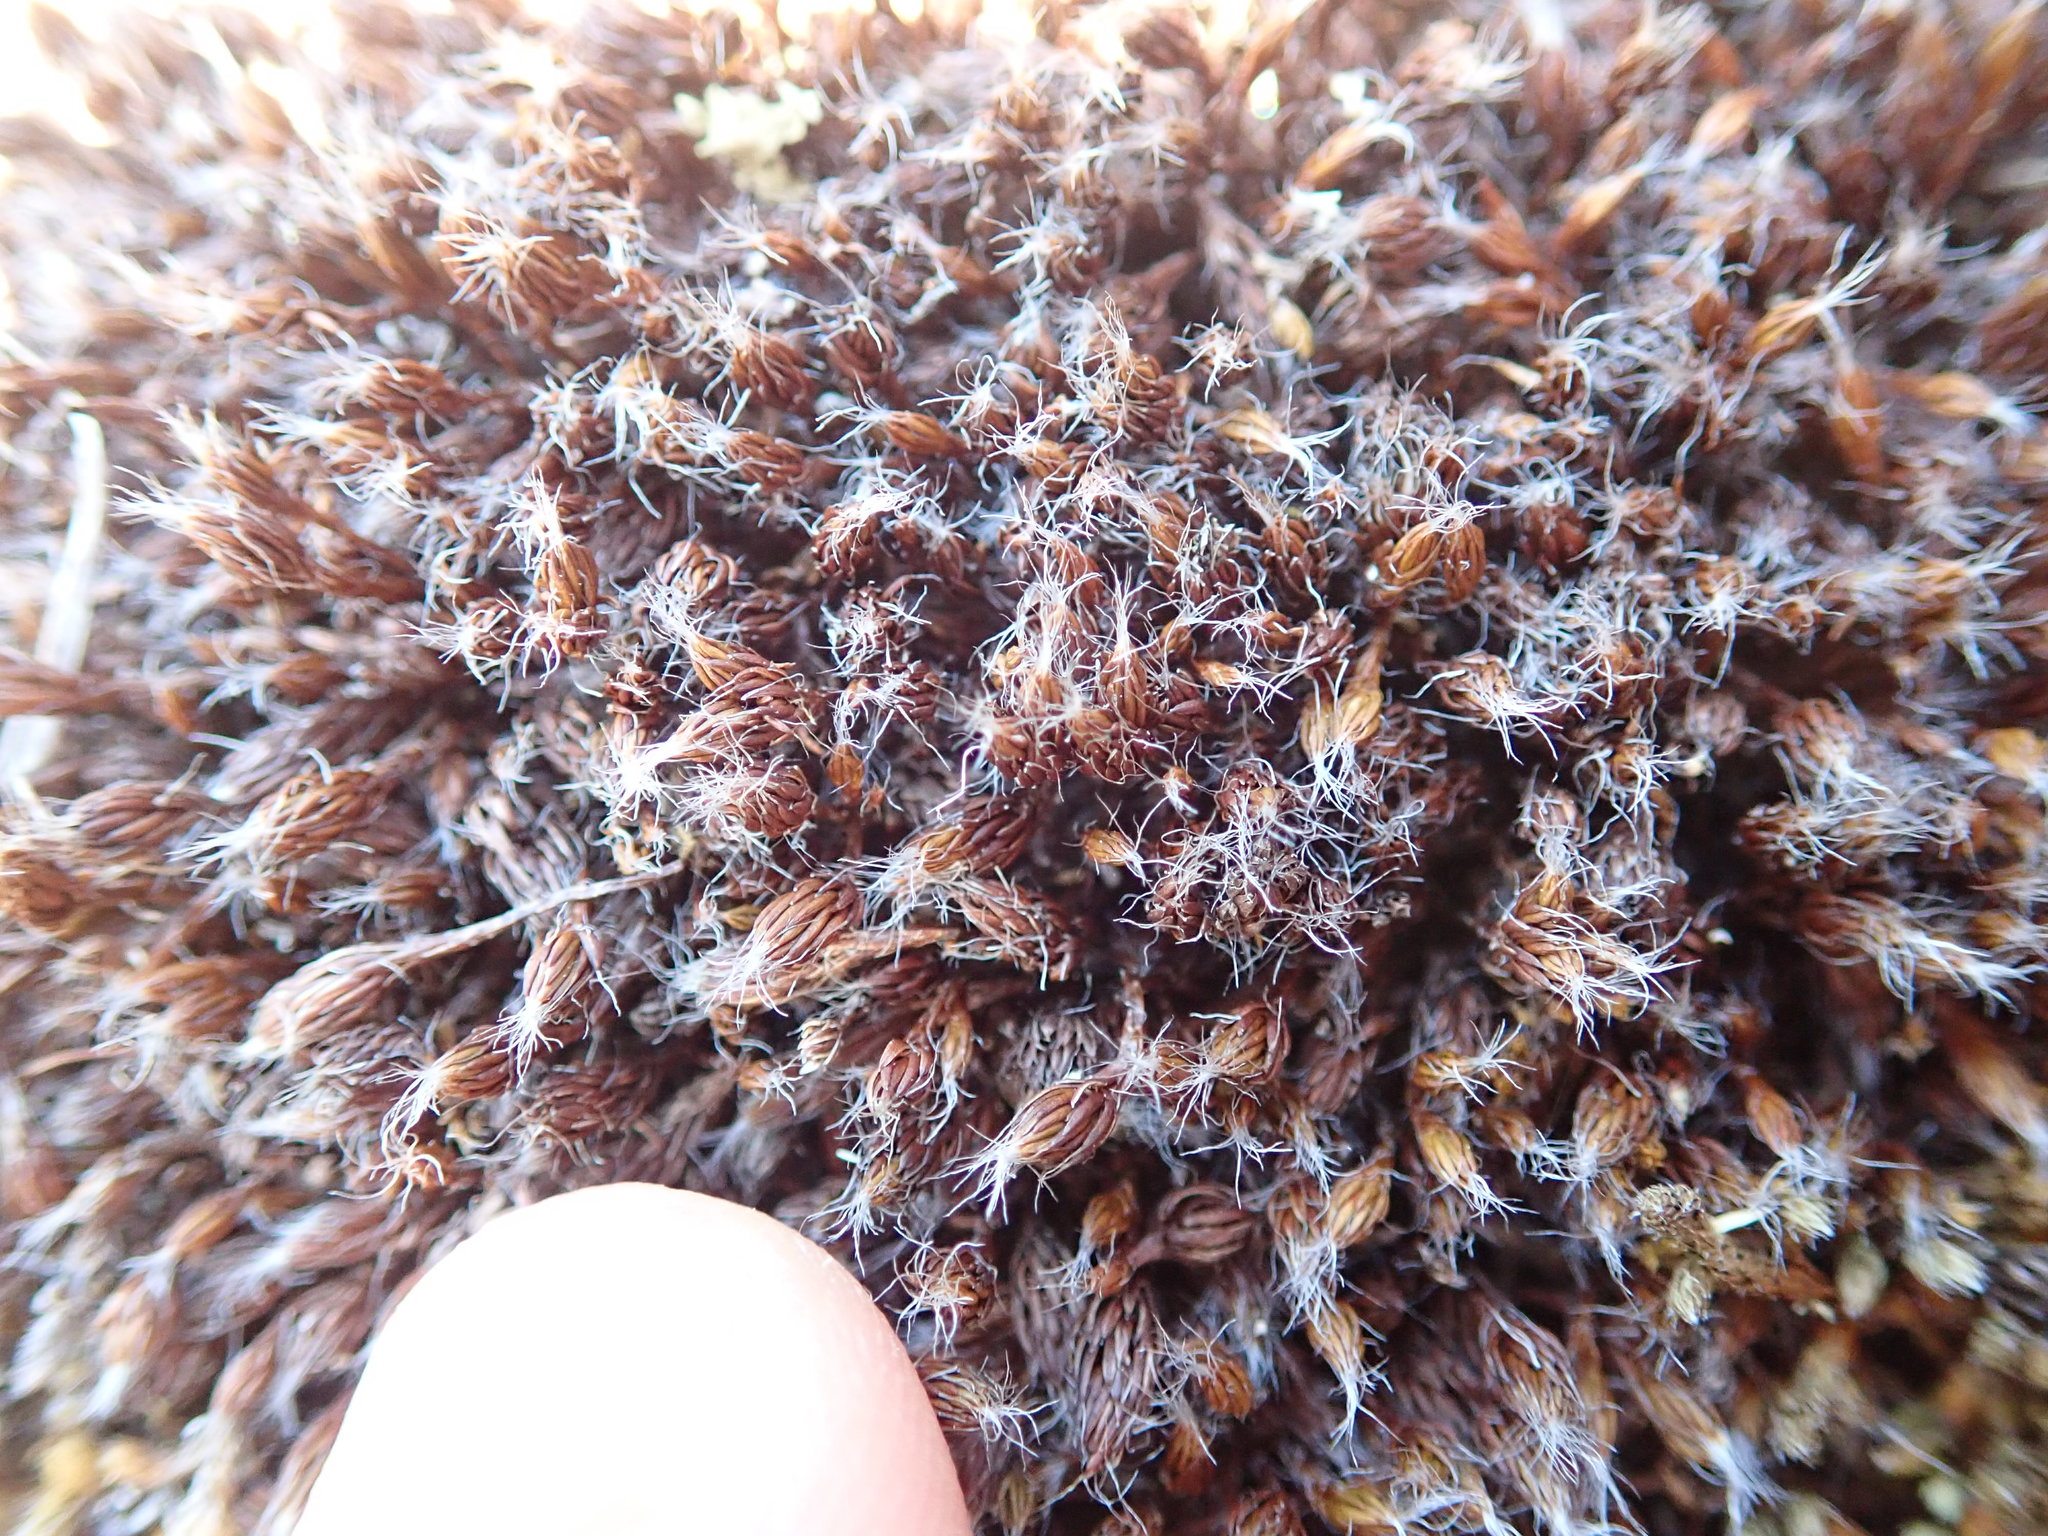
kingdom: Plantae
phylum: Bryophyta
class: Polytrichopsida
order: Polytrichales
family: Polytrichaceae
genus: Polytrichum
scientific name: Polytrichum piliferum
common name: Bristly haircap
